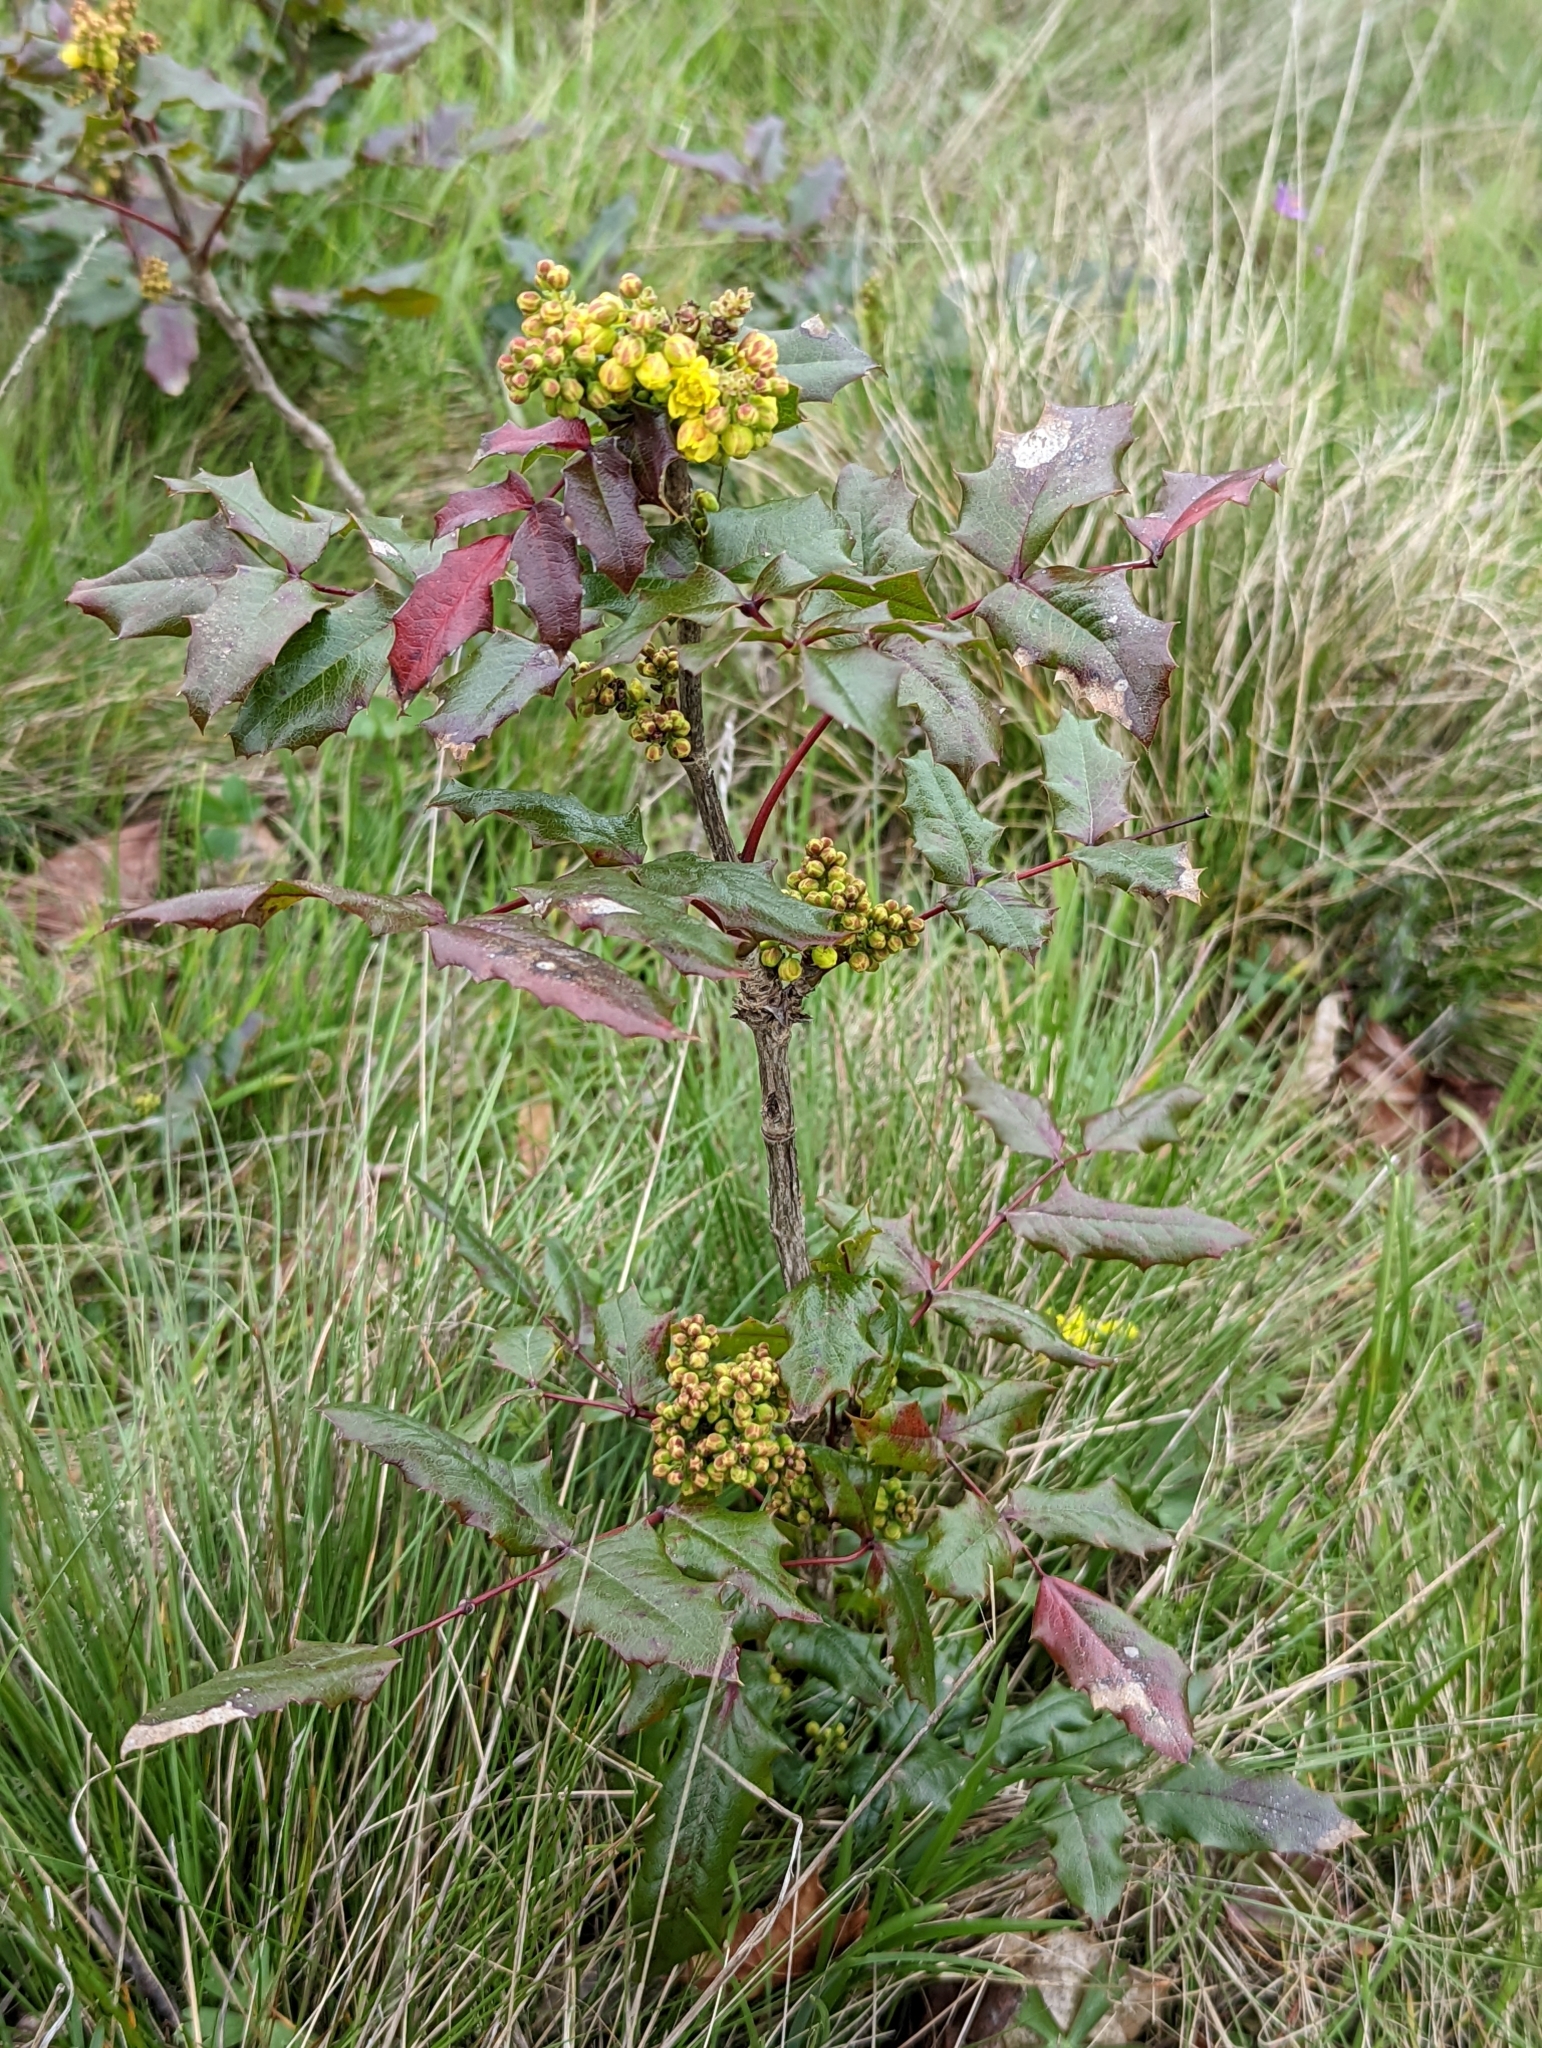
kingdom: Plantae
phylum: Tracheophyta
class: Magnoliopsida
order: Ranunculales
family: Berberidaceae
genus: Mahonia
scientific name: Mahonia aquifolium
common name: Oregon-grape
